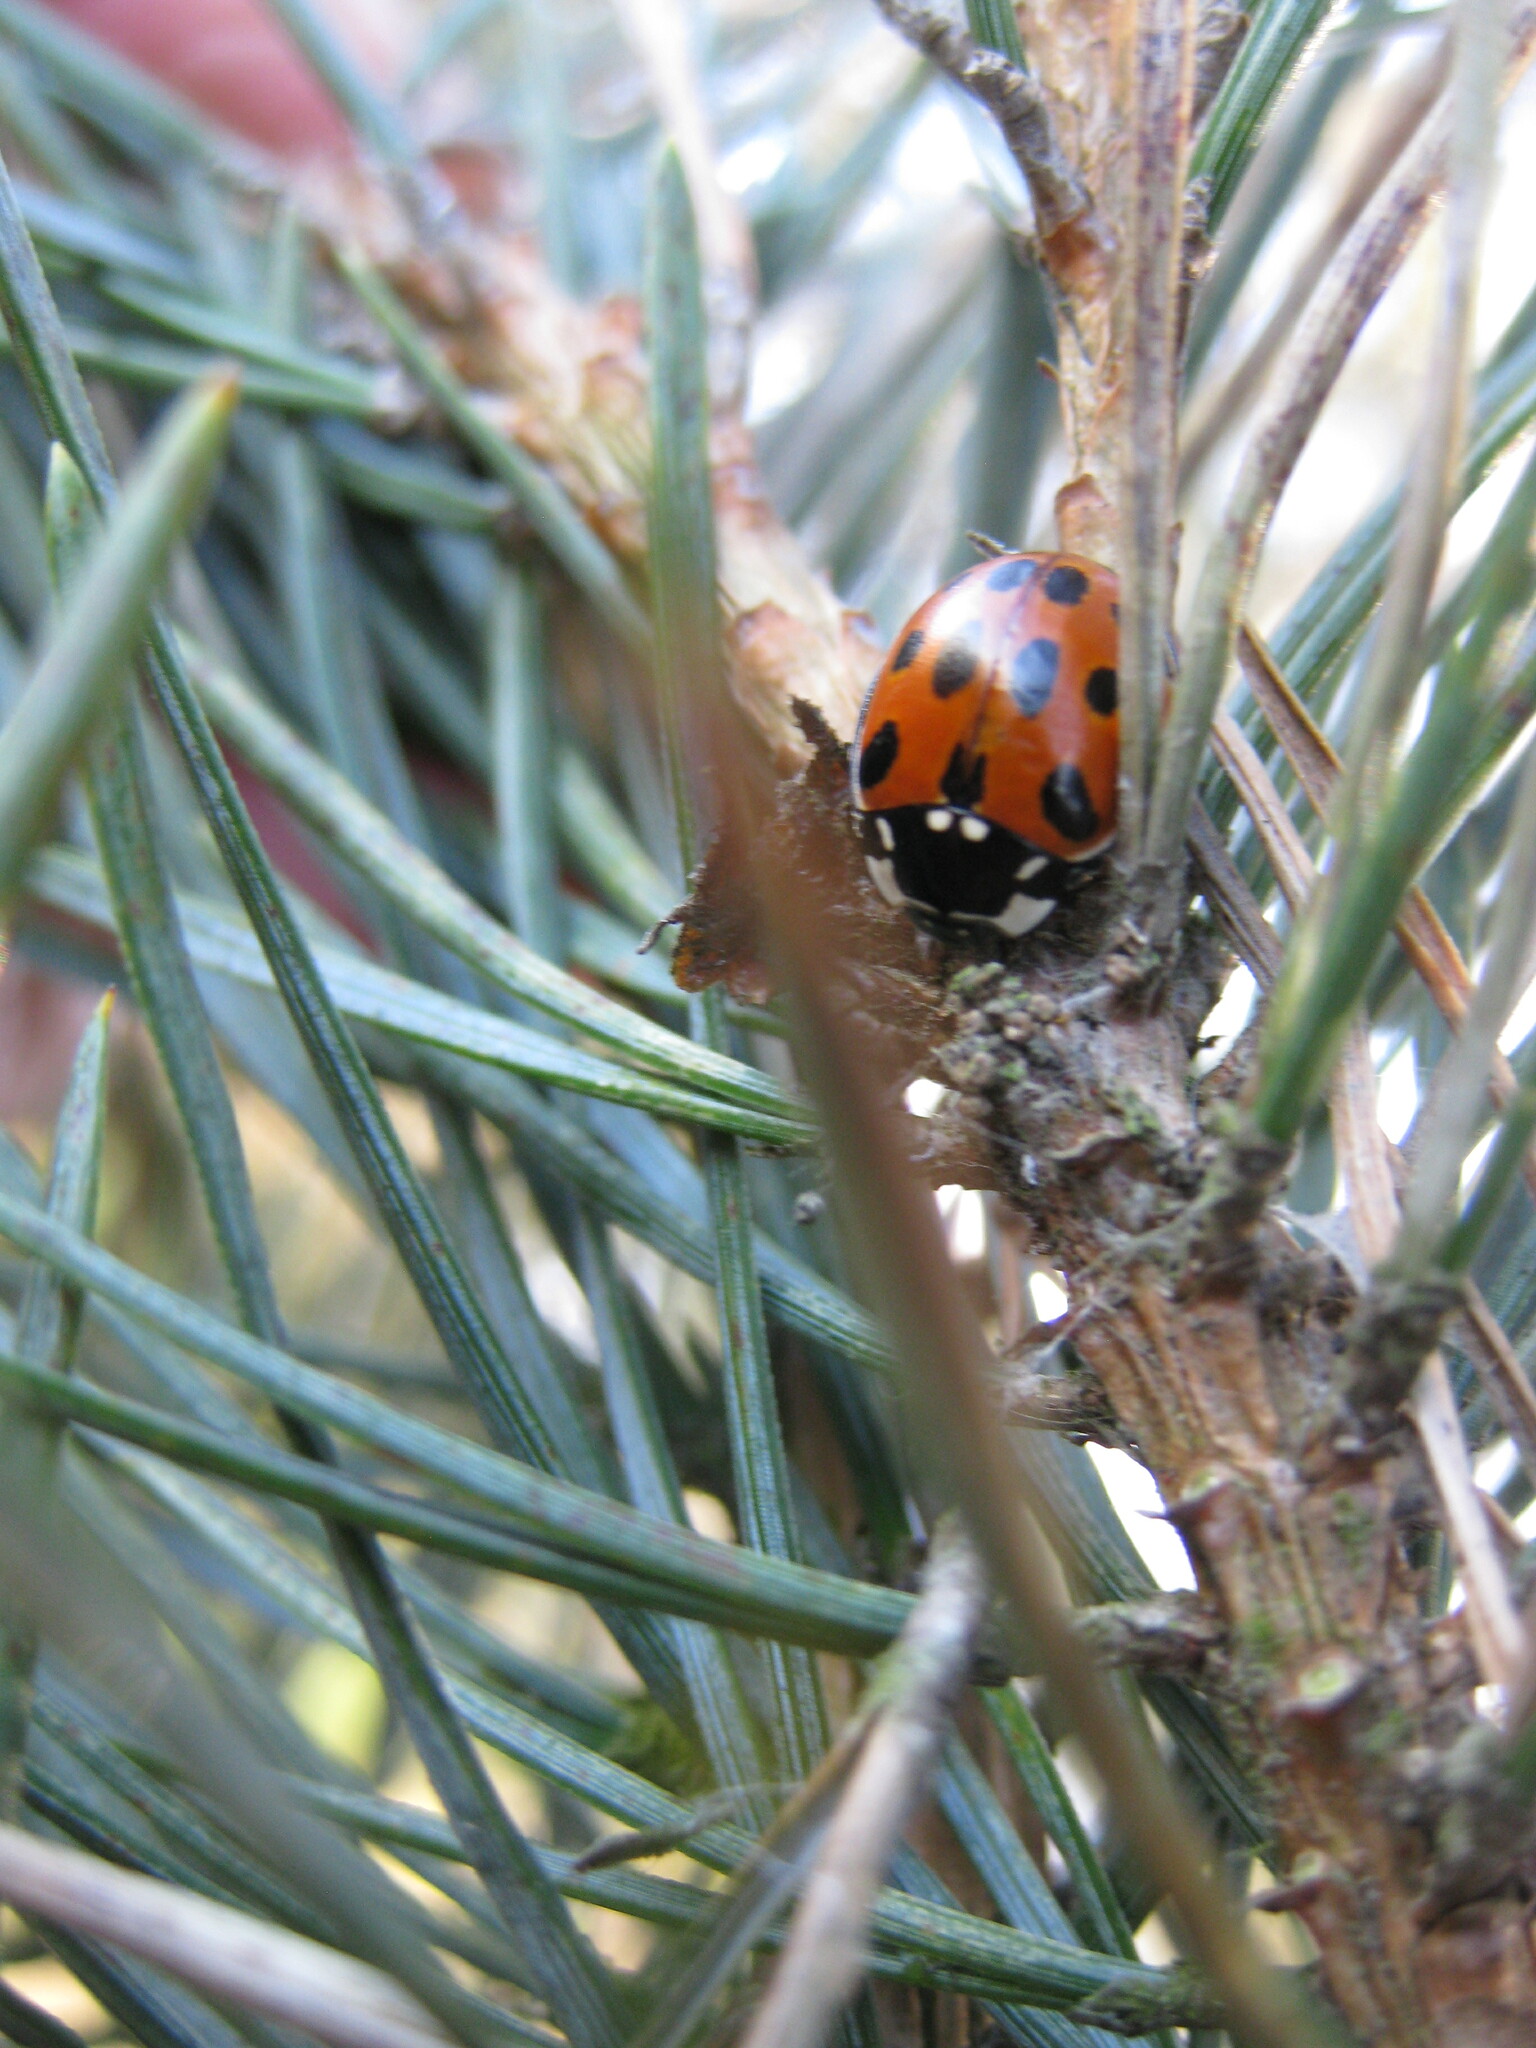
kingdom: Animalia
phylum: Arthropoda
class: Insecta
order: Coleoptera
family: Coccinellidae
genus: Anatis
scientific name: Anatis ocellata
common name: Eyed ladybird
